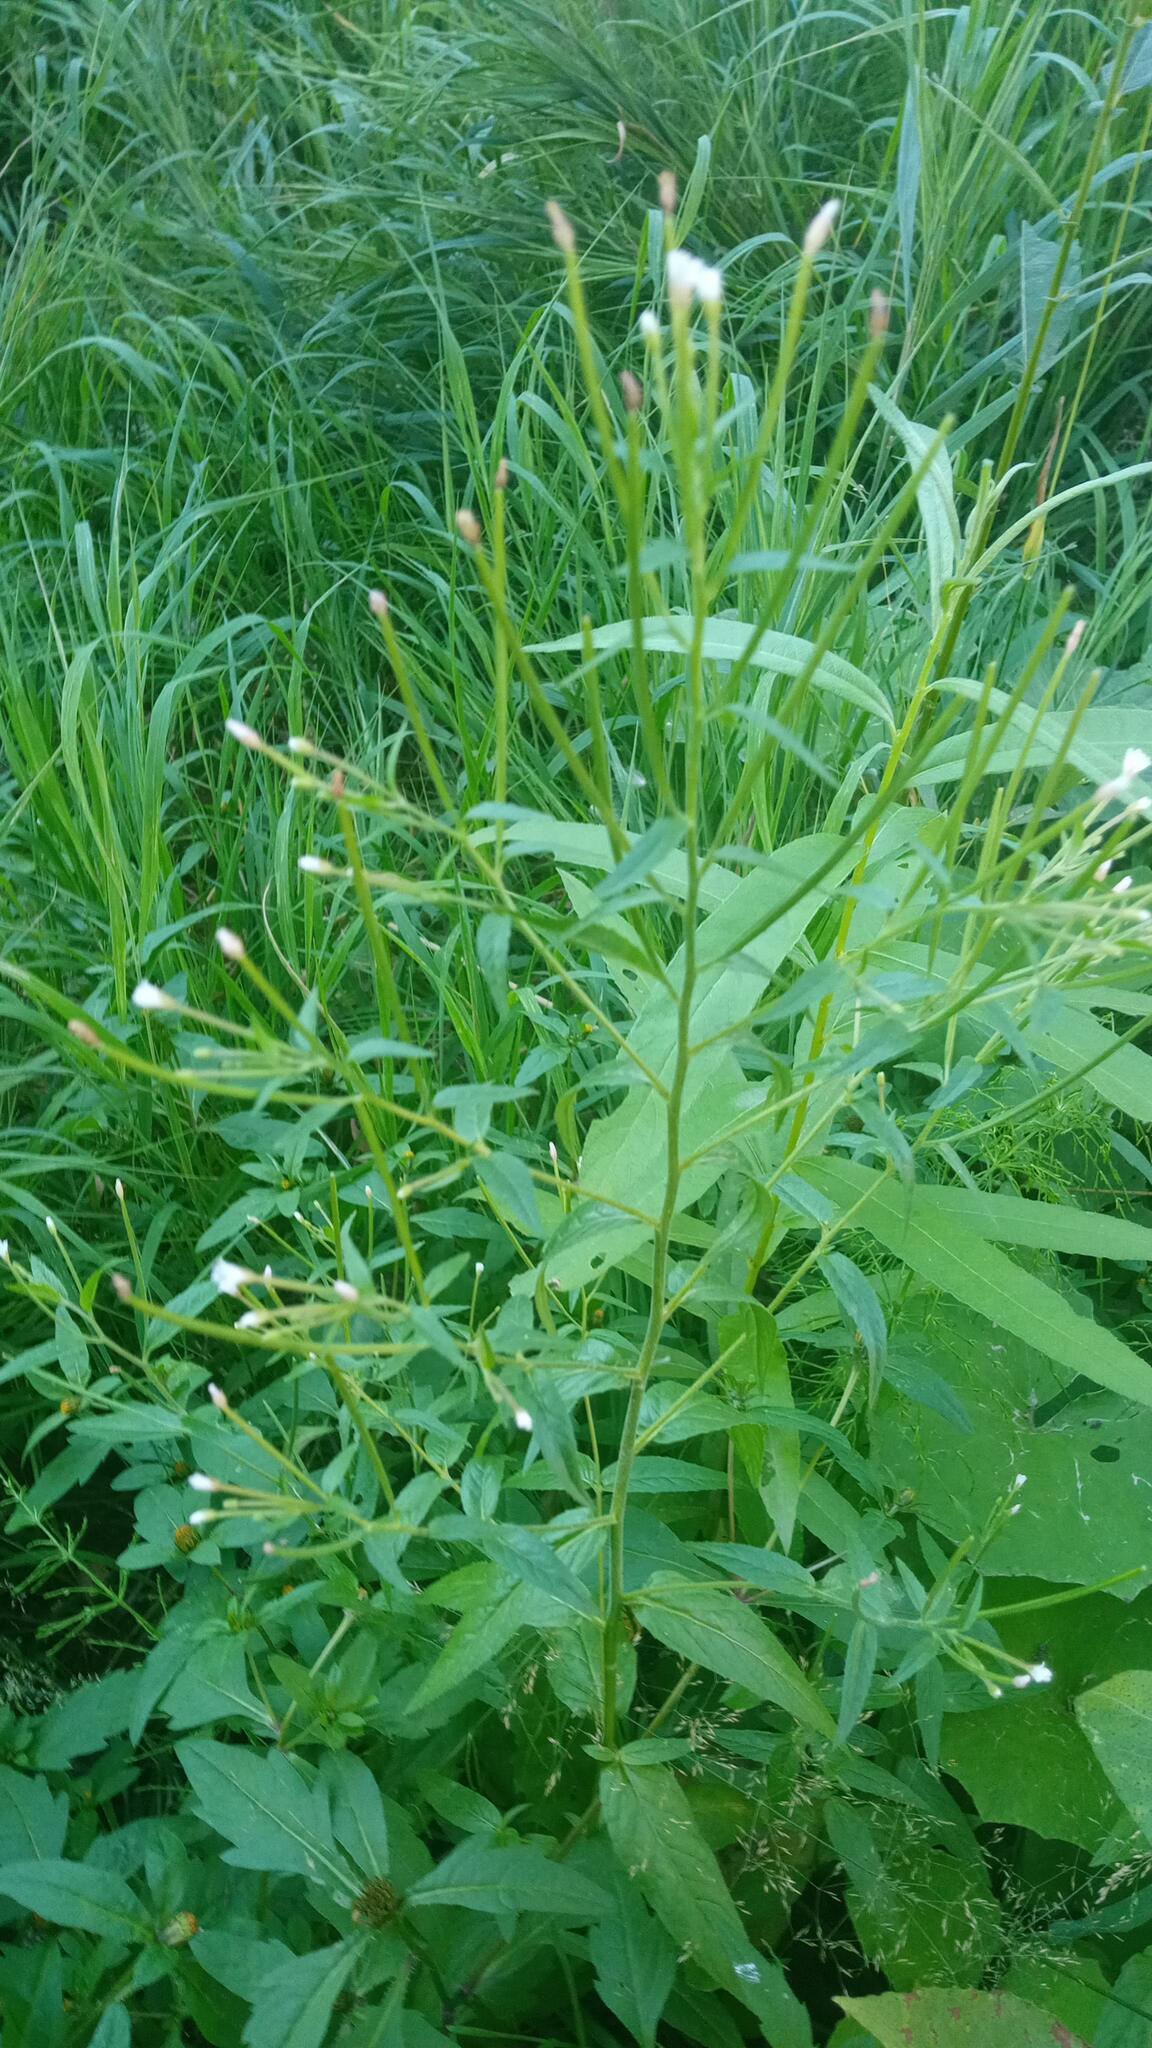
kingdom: Plantae
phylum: Tracheophyta
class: Magnoliopsida
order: Myrtales
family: Onagraceae
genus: Epilobium
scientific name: Epilobium pseudorubescens
